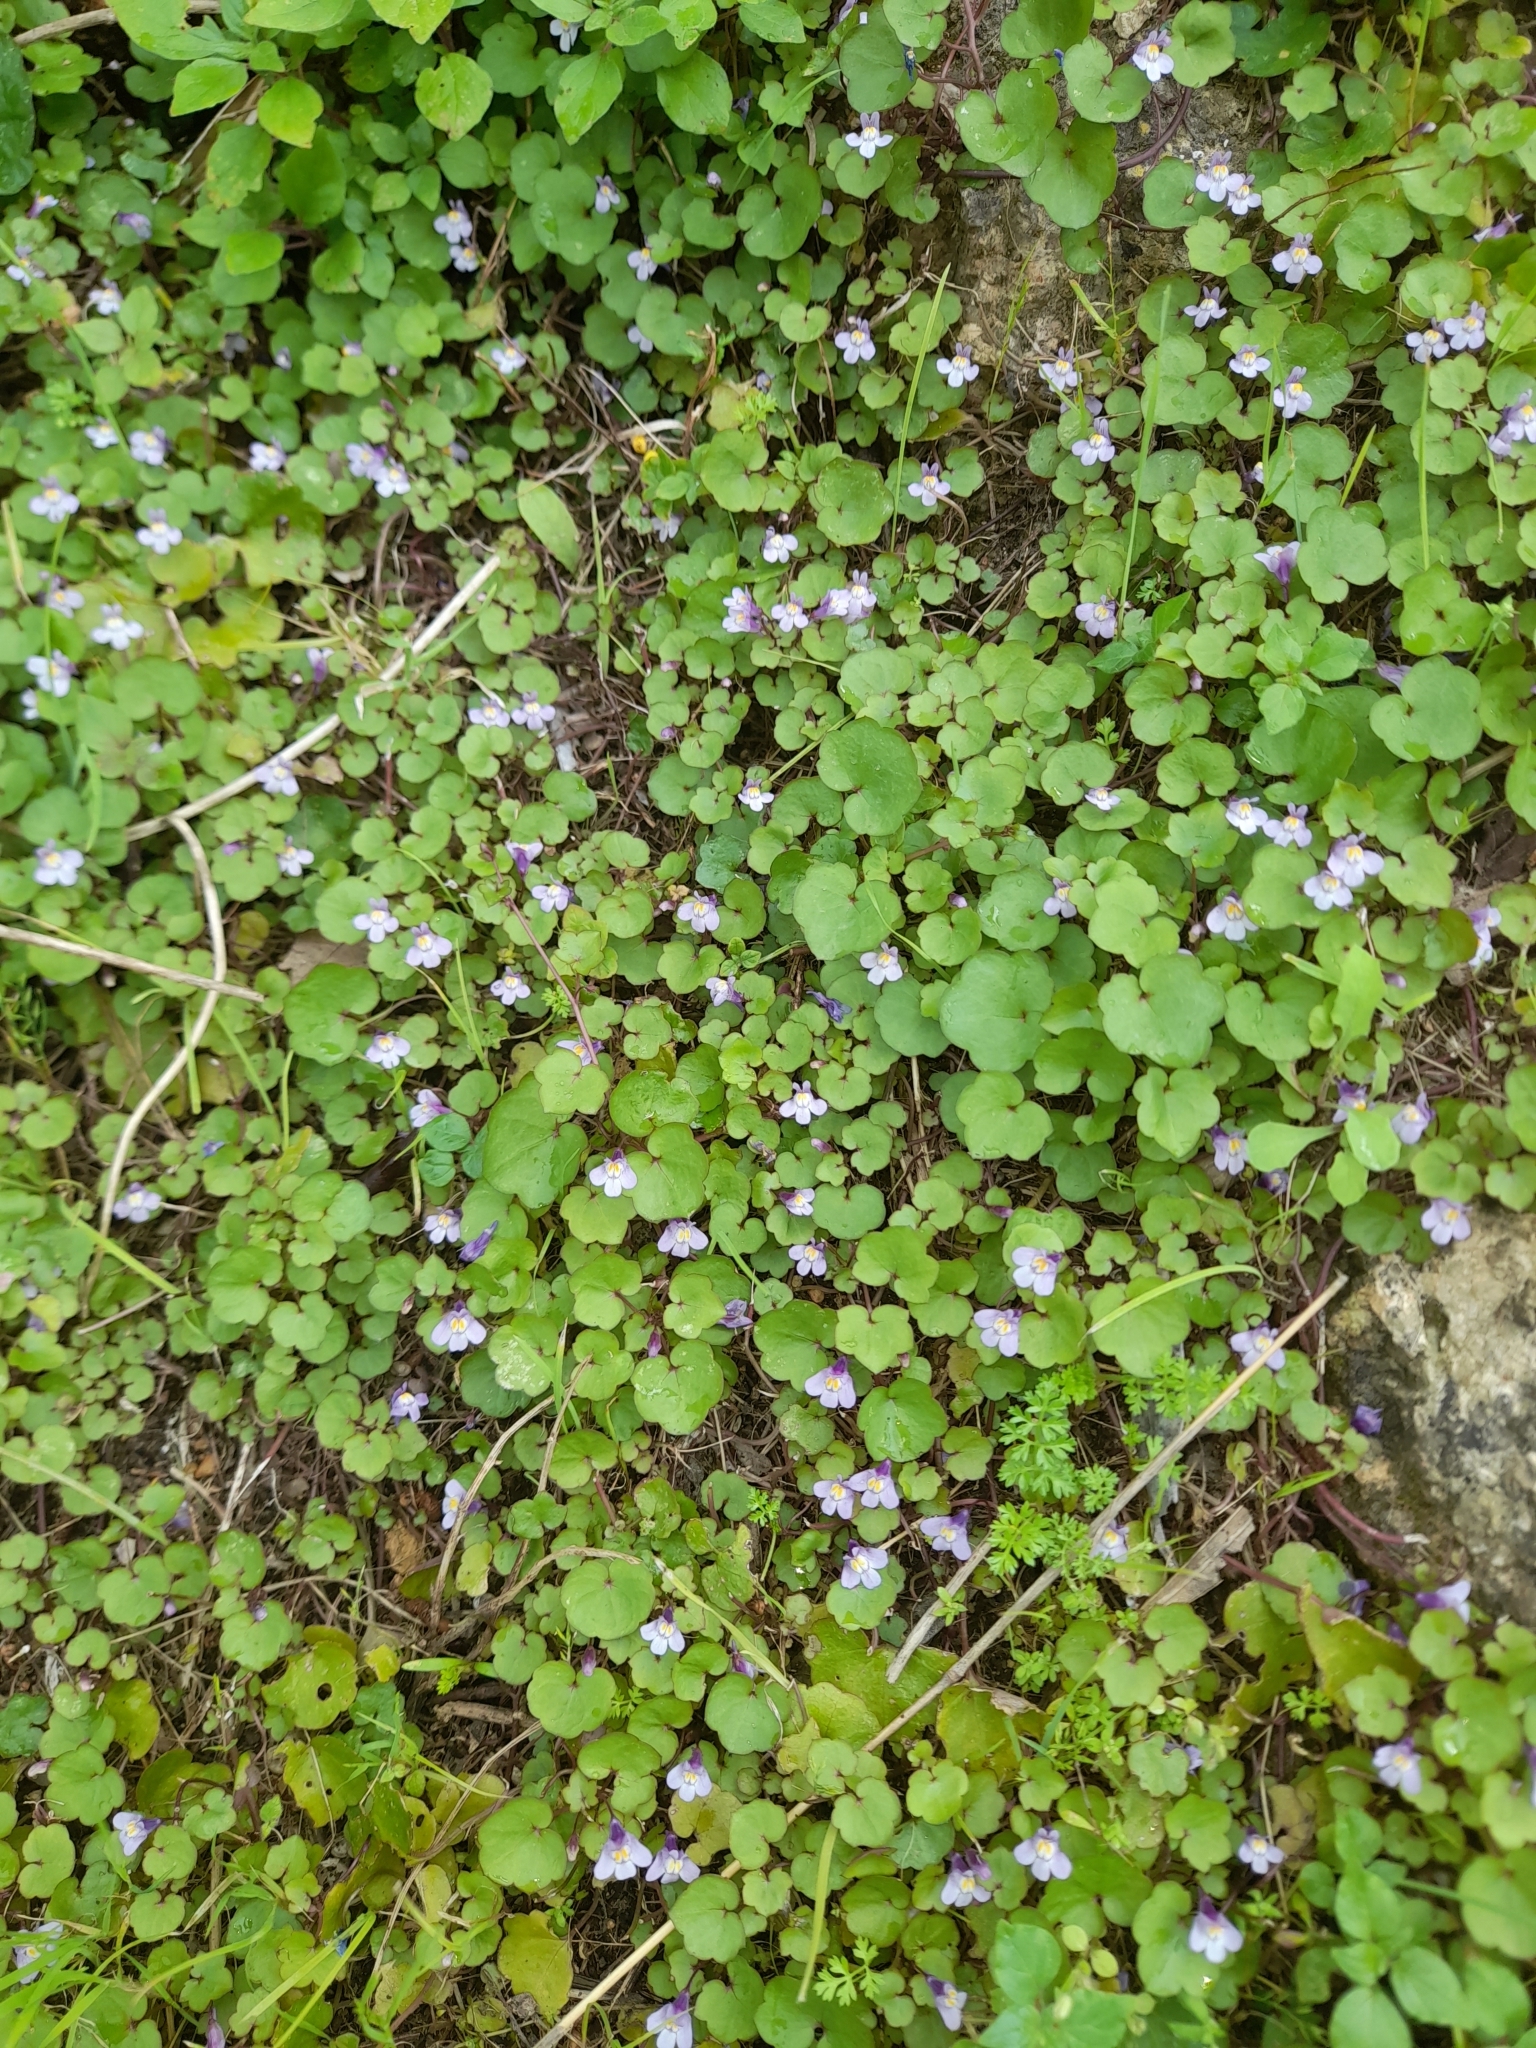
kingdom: Plantae
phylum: Tracheophyta
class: Magnoliopsida
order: Lamiales
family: Plantaginaceae
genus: Cymbalaria
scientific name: Cymbalaria muralis
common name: Ivy-leaved toadflax
